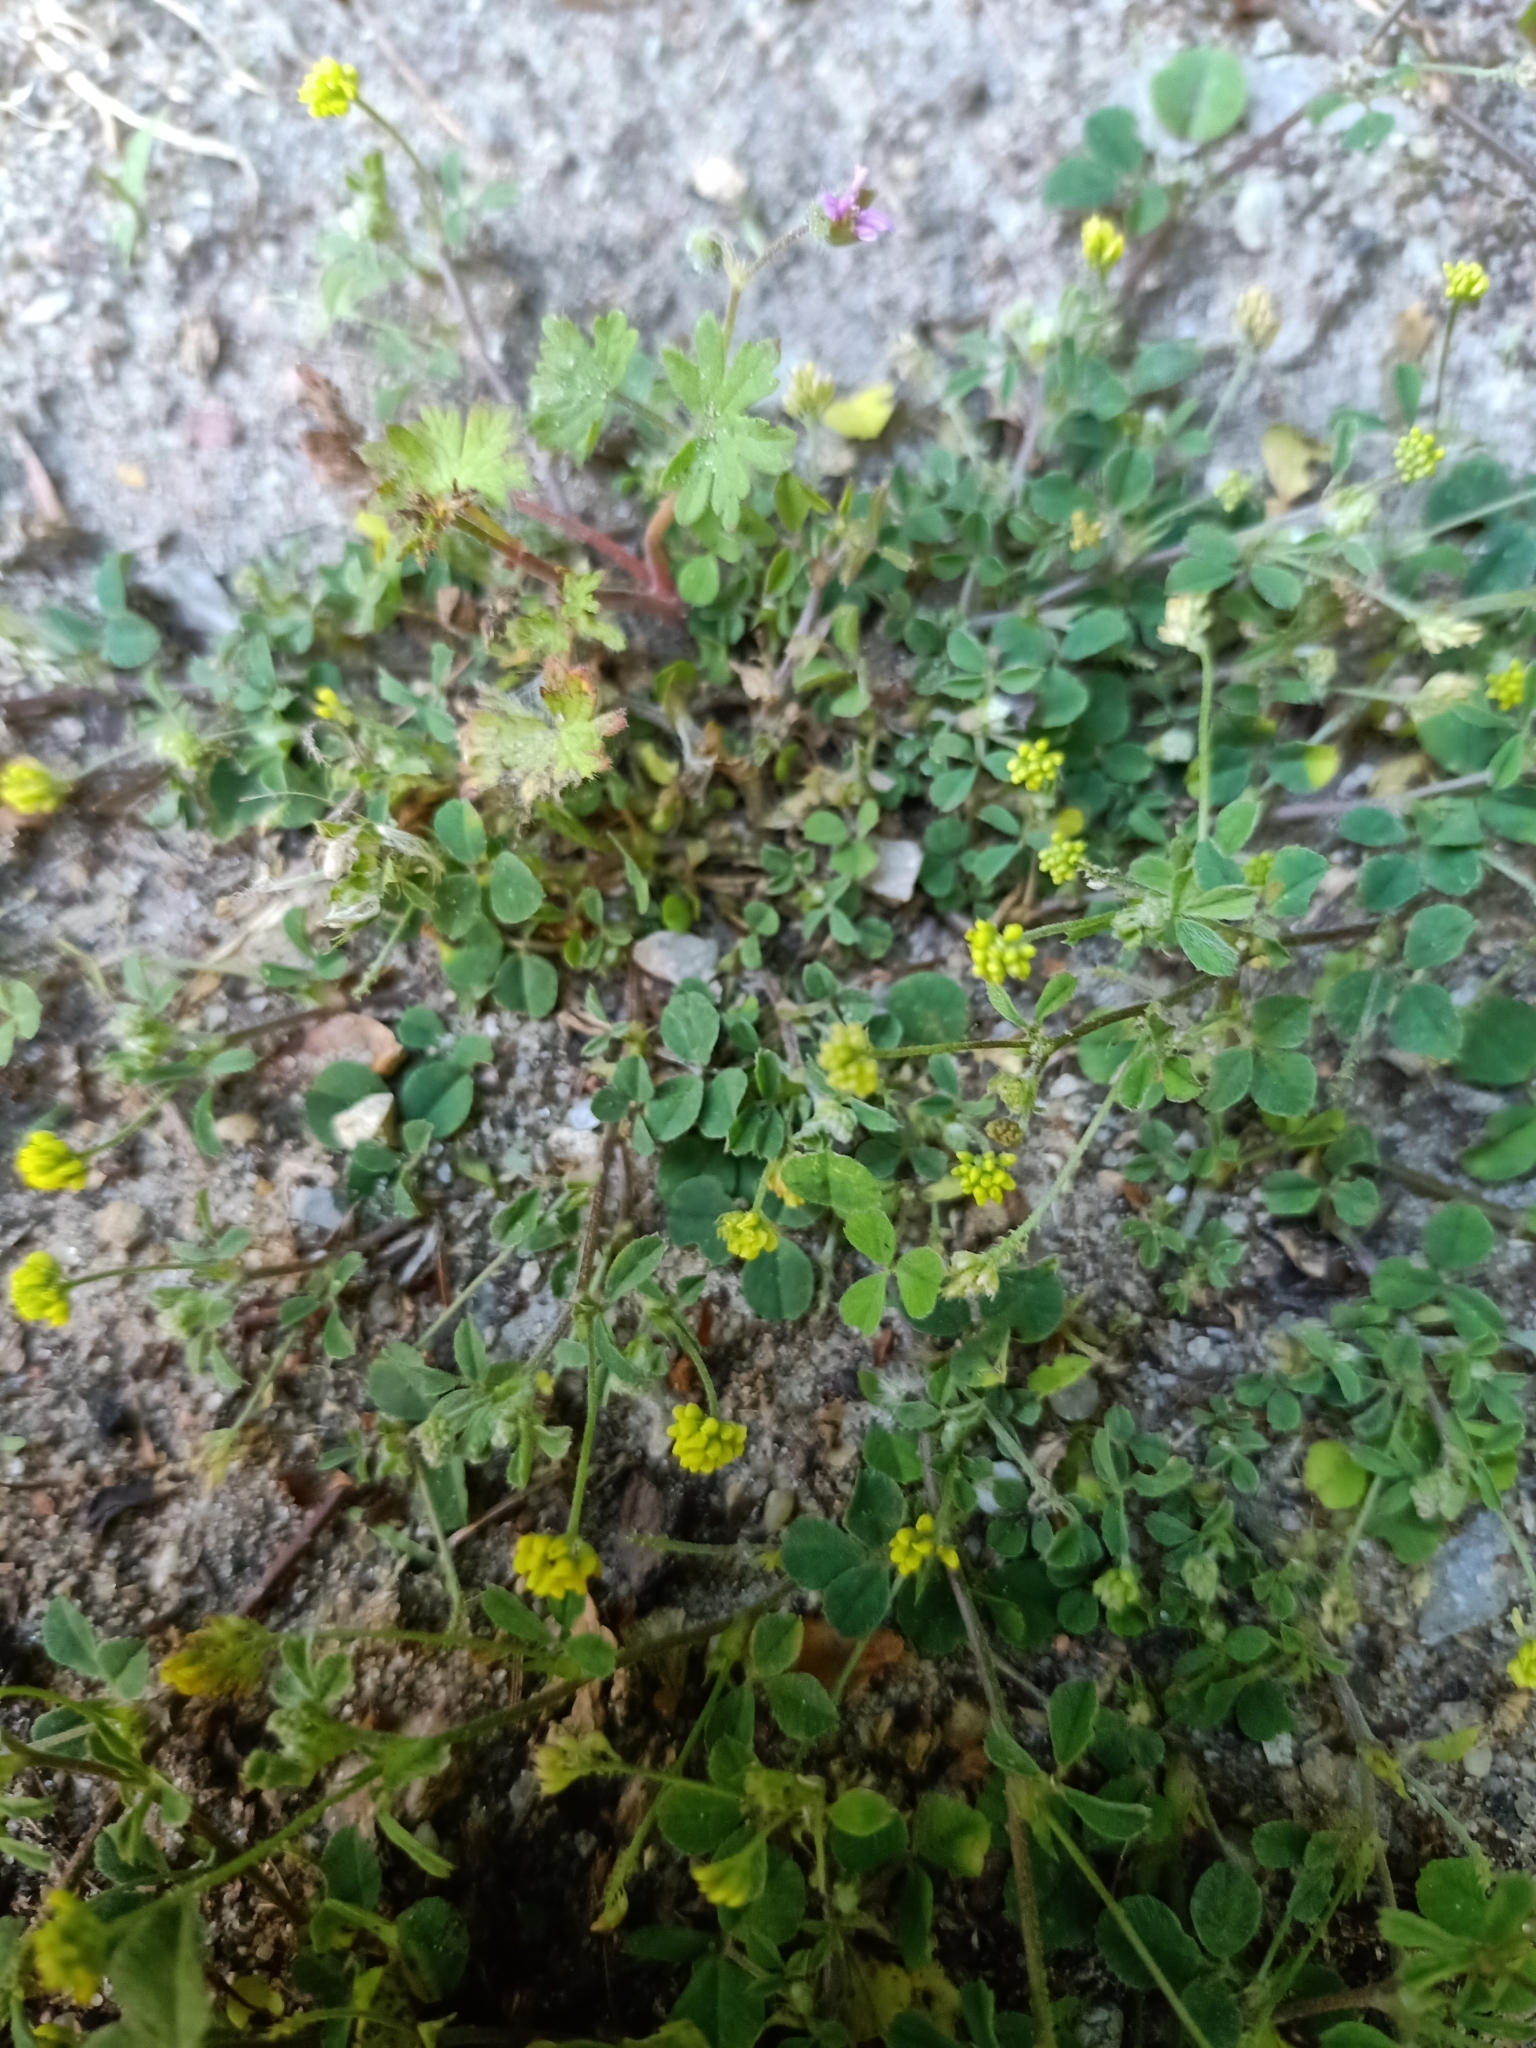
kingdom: Plantae
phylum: Tracheophyta
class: Magnoliopsida
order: Fabales
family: Fabaceae
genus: Medicago
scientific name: Medicago lupulina
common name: Black medick
